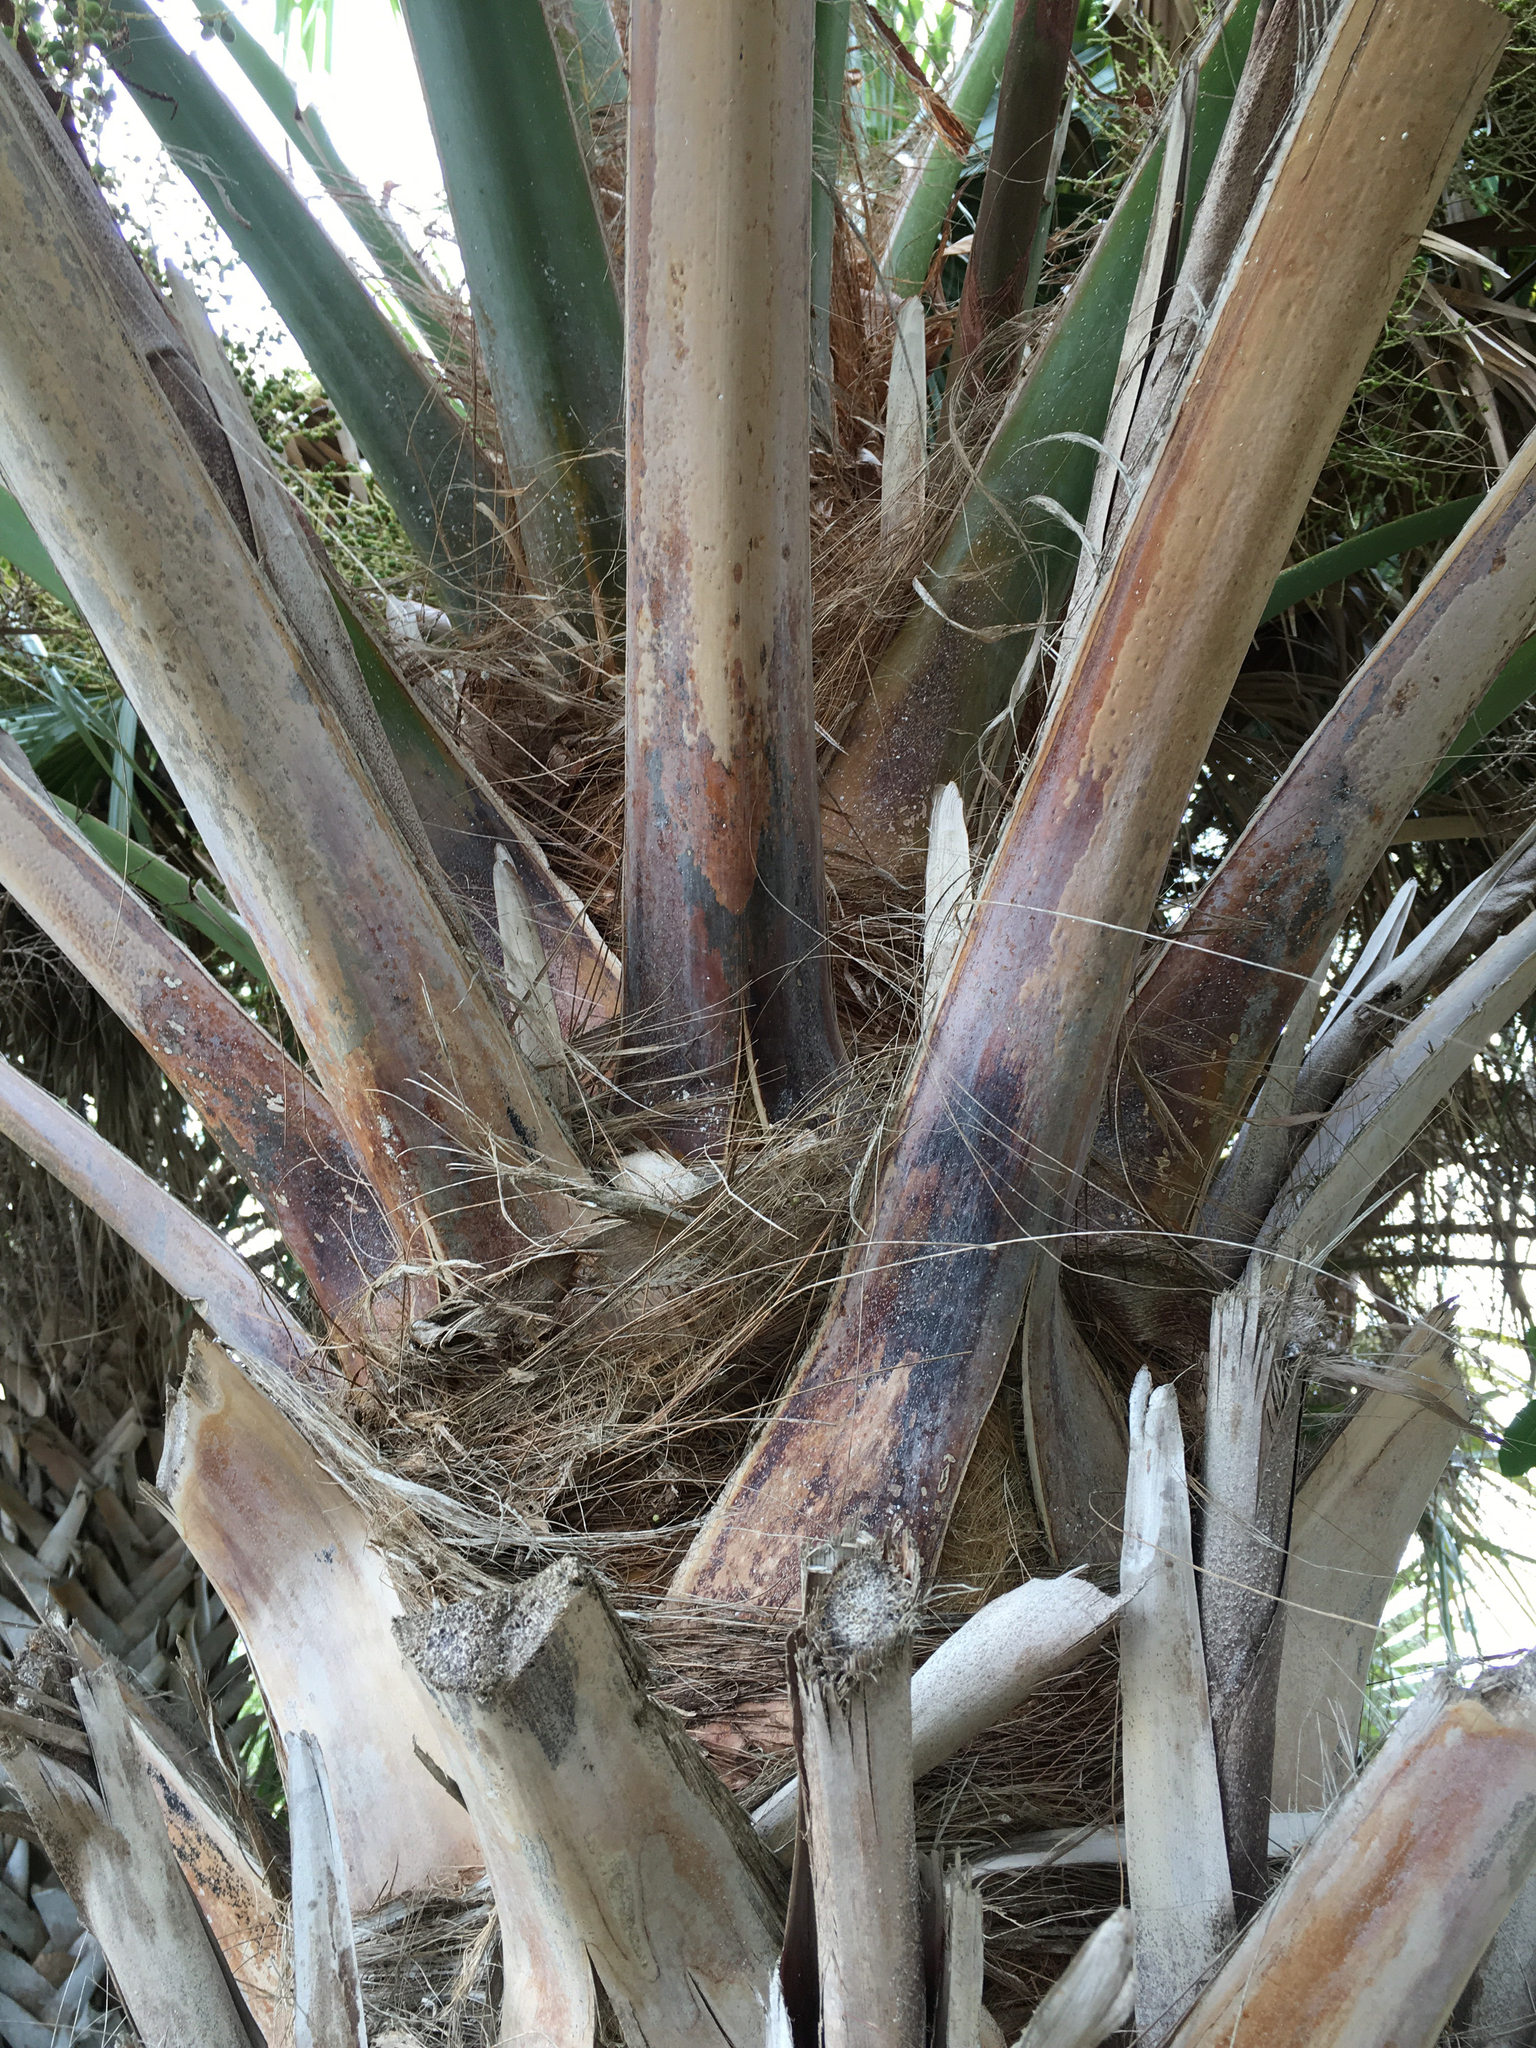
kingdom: Plantae
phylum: Tracheophyta
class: Liliopsida
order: Arecales
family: Arecaceae
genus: Sabal
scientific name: Sabal palmetto
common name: Blue palmetto
